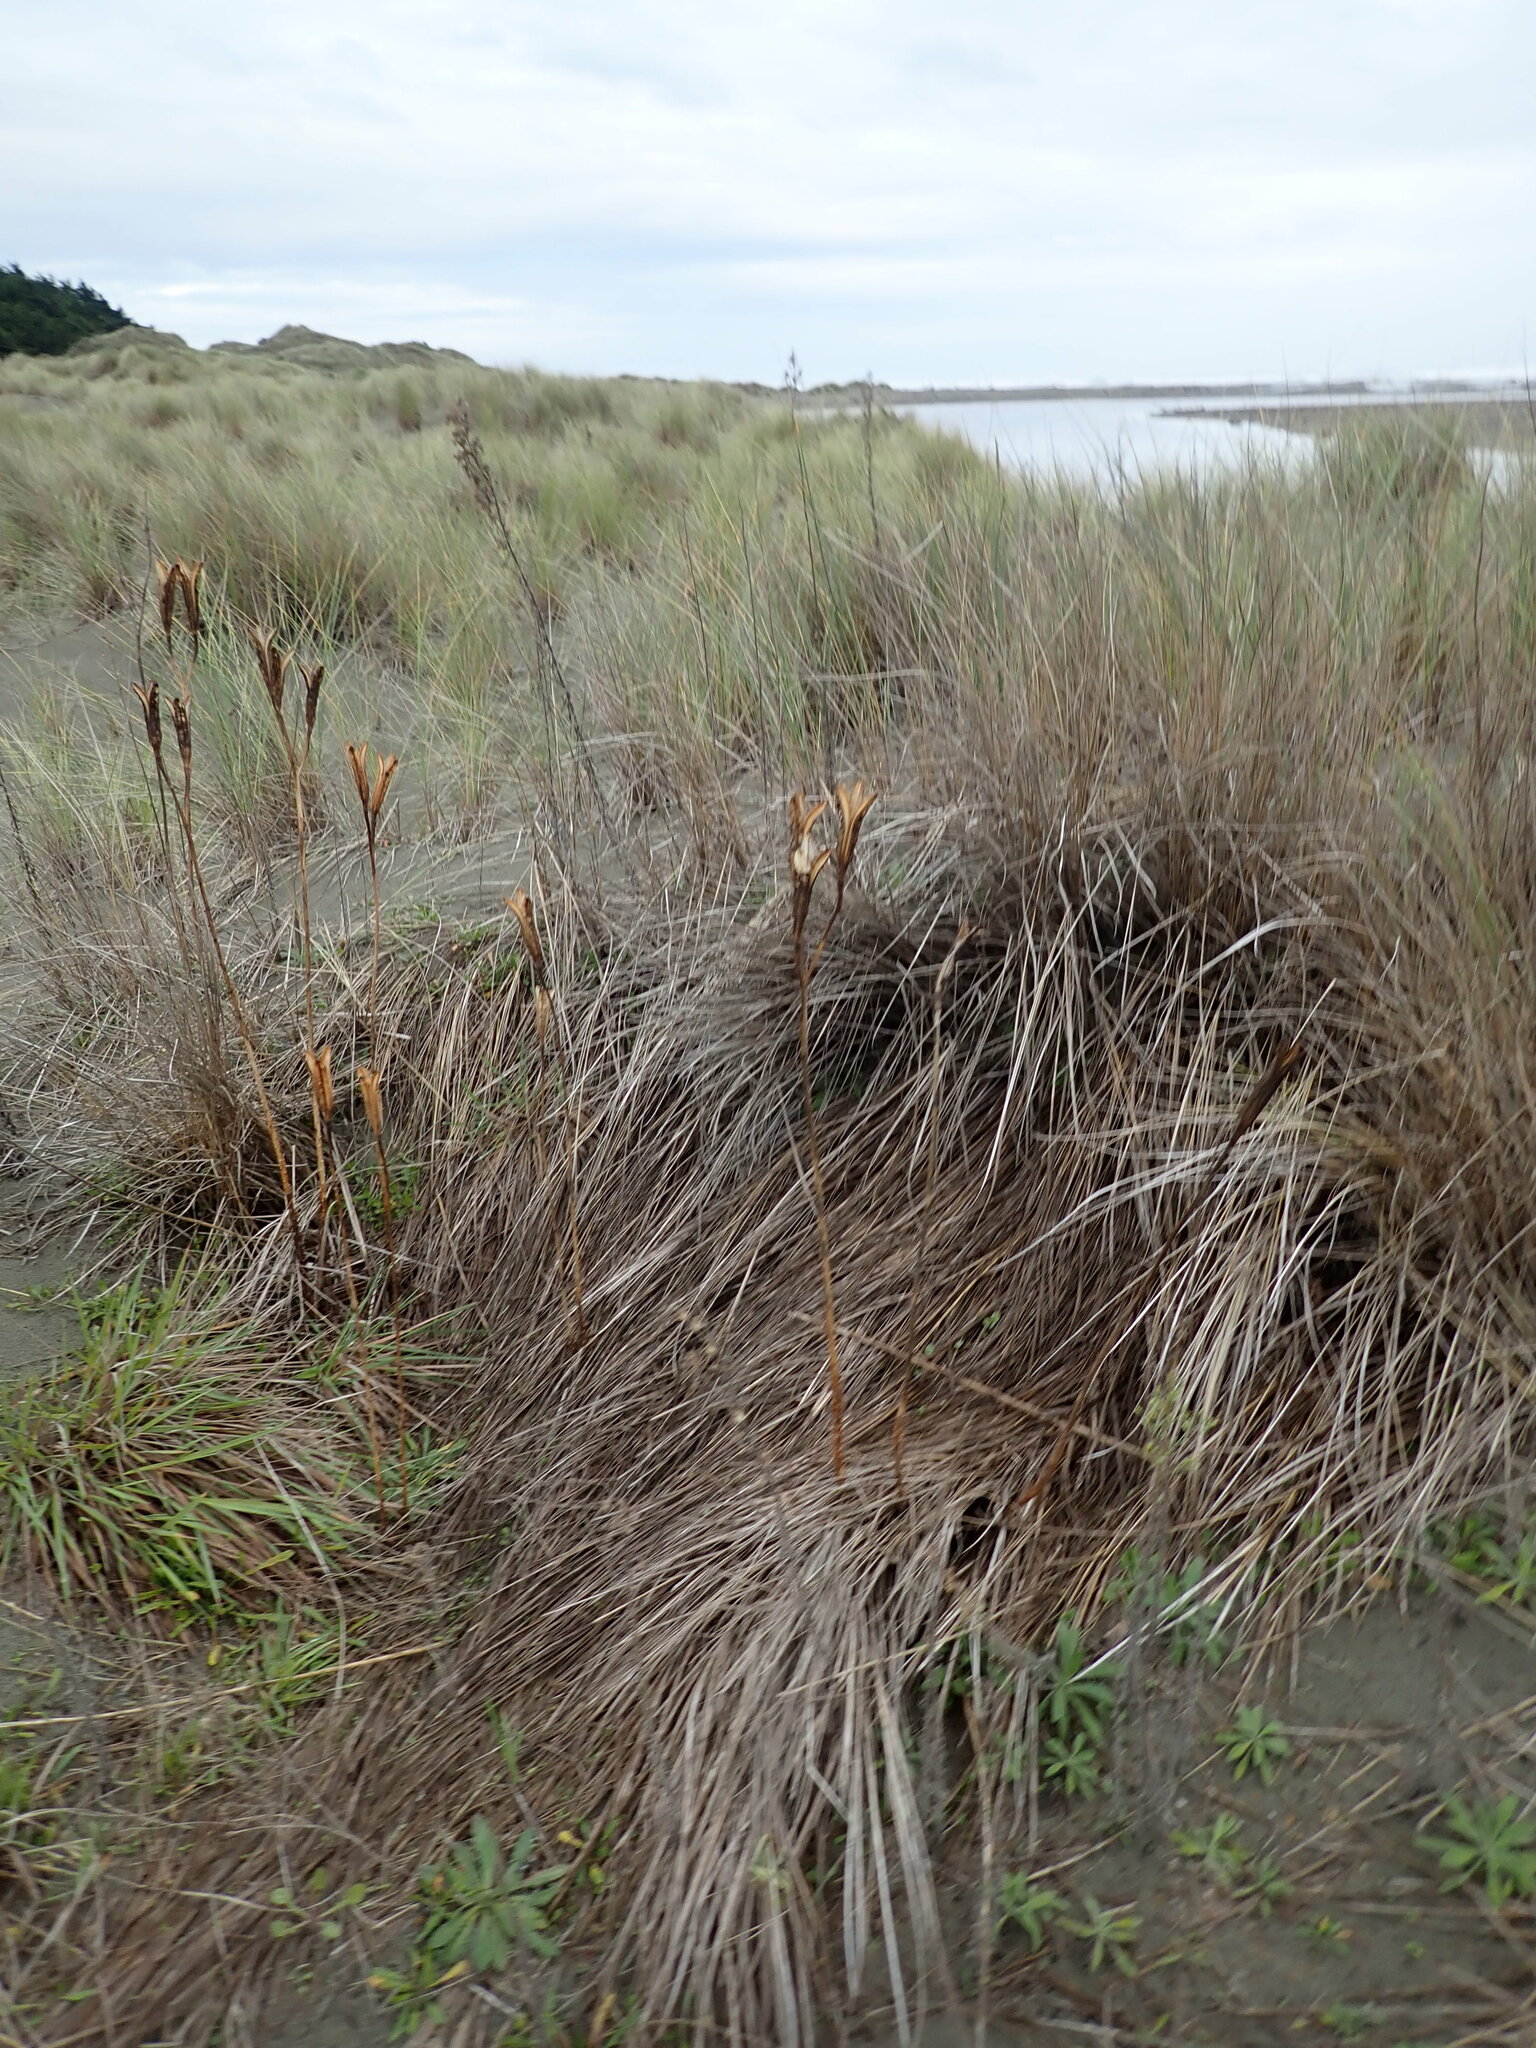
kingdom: Plantae
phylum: Tracheophyta
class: Liliopsida
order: Liliales
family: Liliaceae
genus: Lilium
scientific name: Lilium formosanum
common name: Formosa lily
